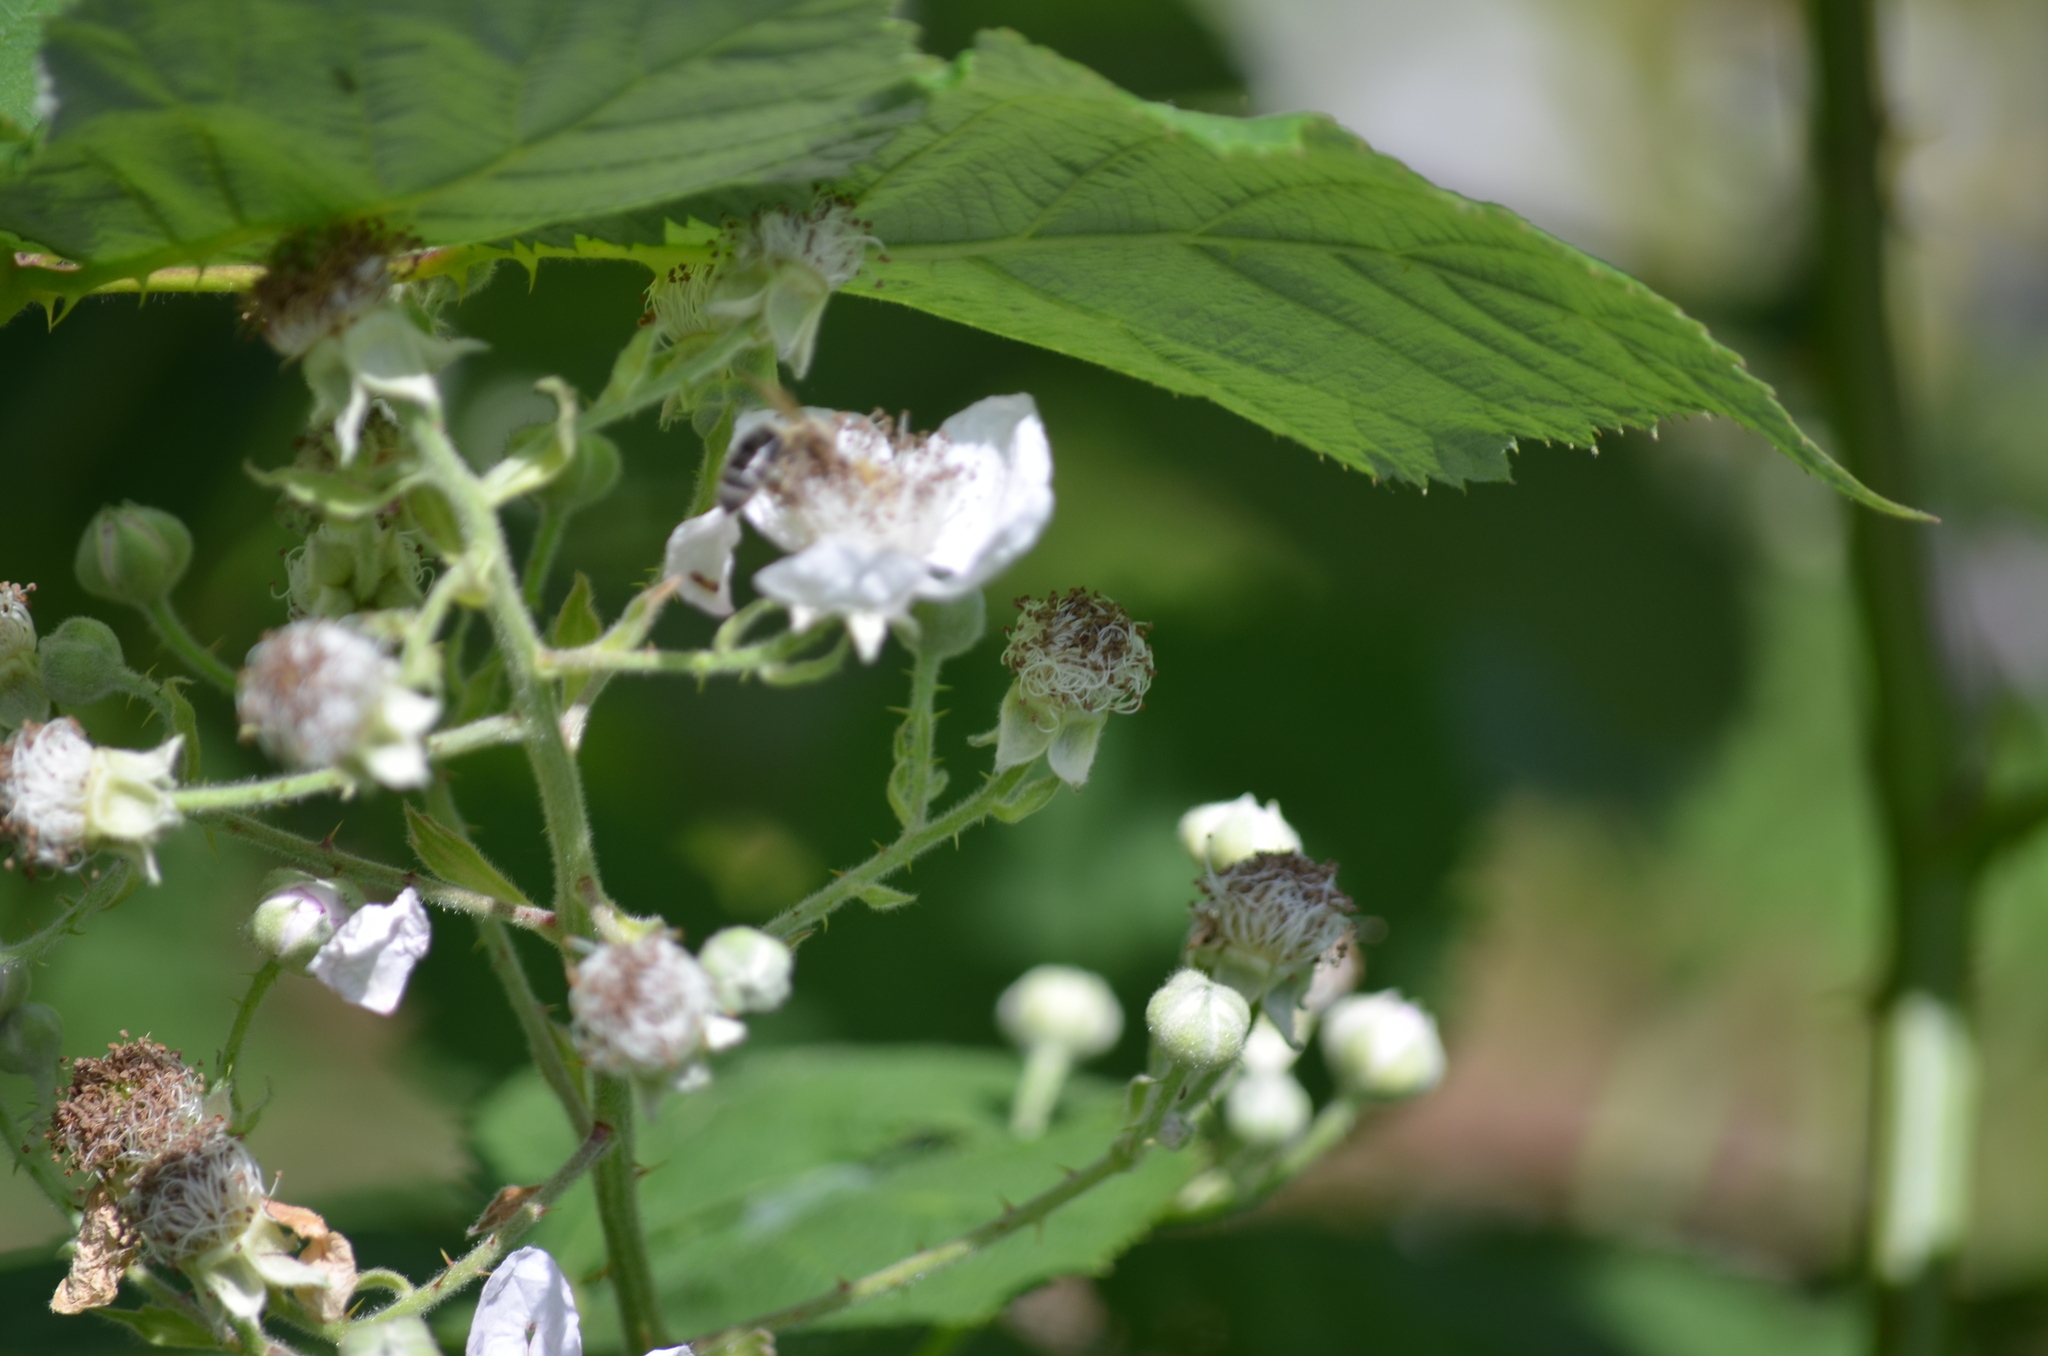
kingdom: Animalia
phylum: Arthropoda
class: Insecta
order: Hymenoptera
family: Apidae
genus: Apis
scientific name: Apis mellifera
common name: Honey bee
